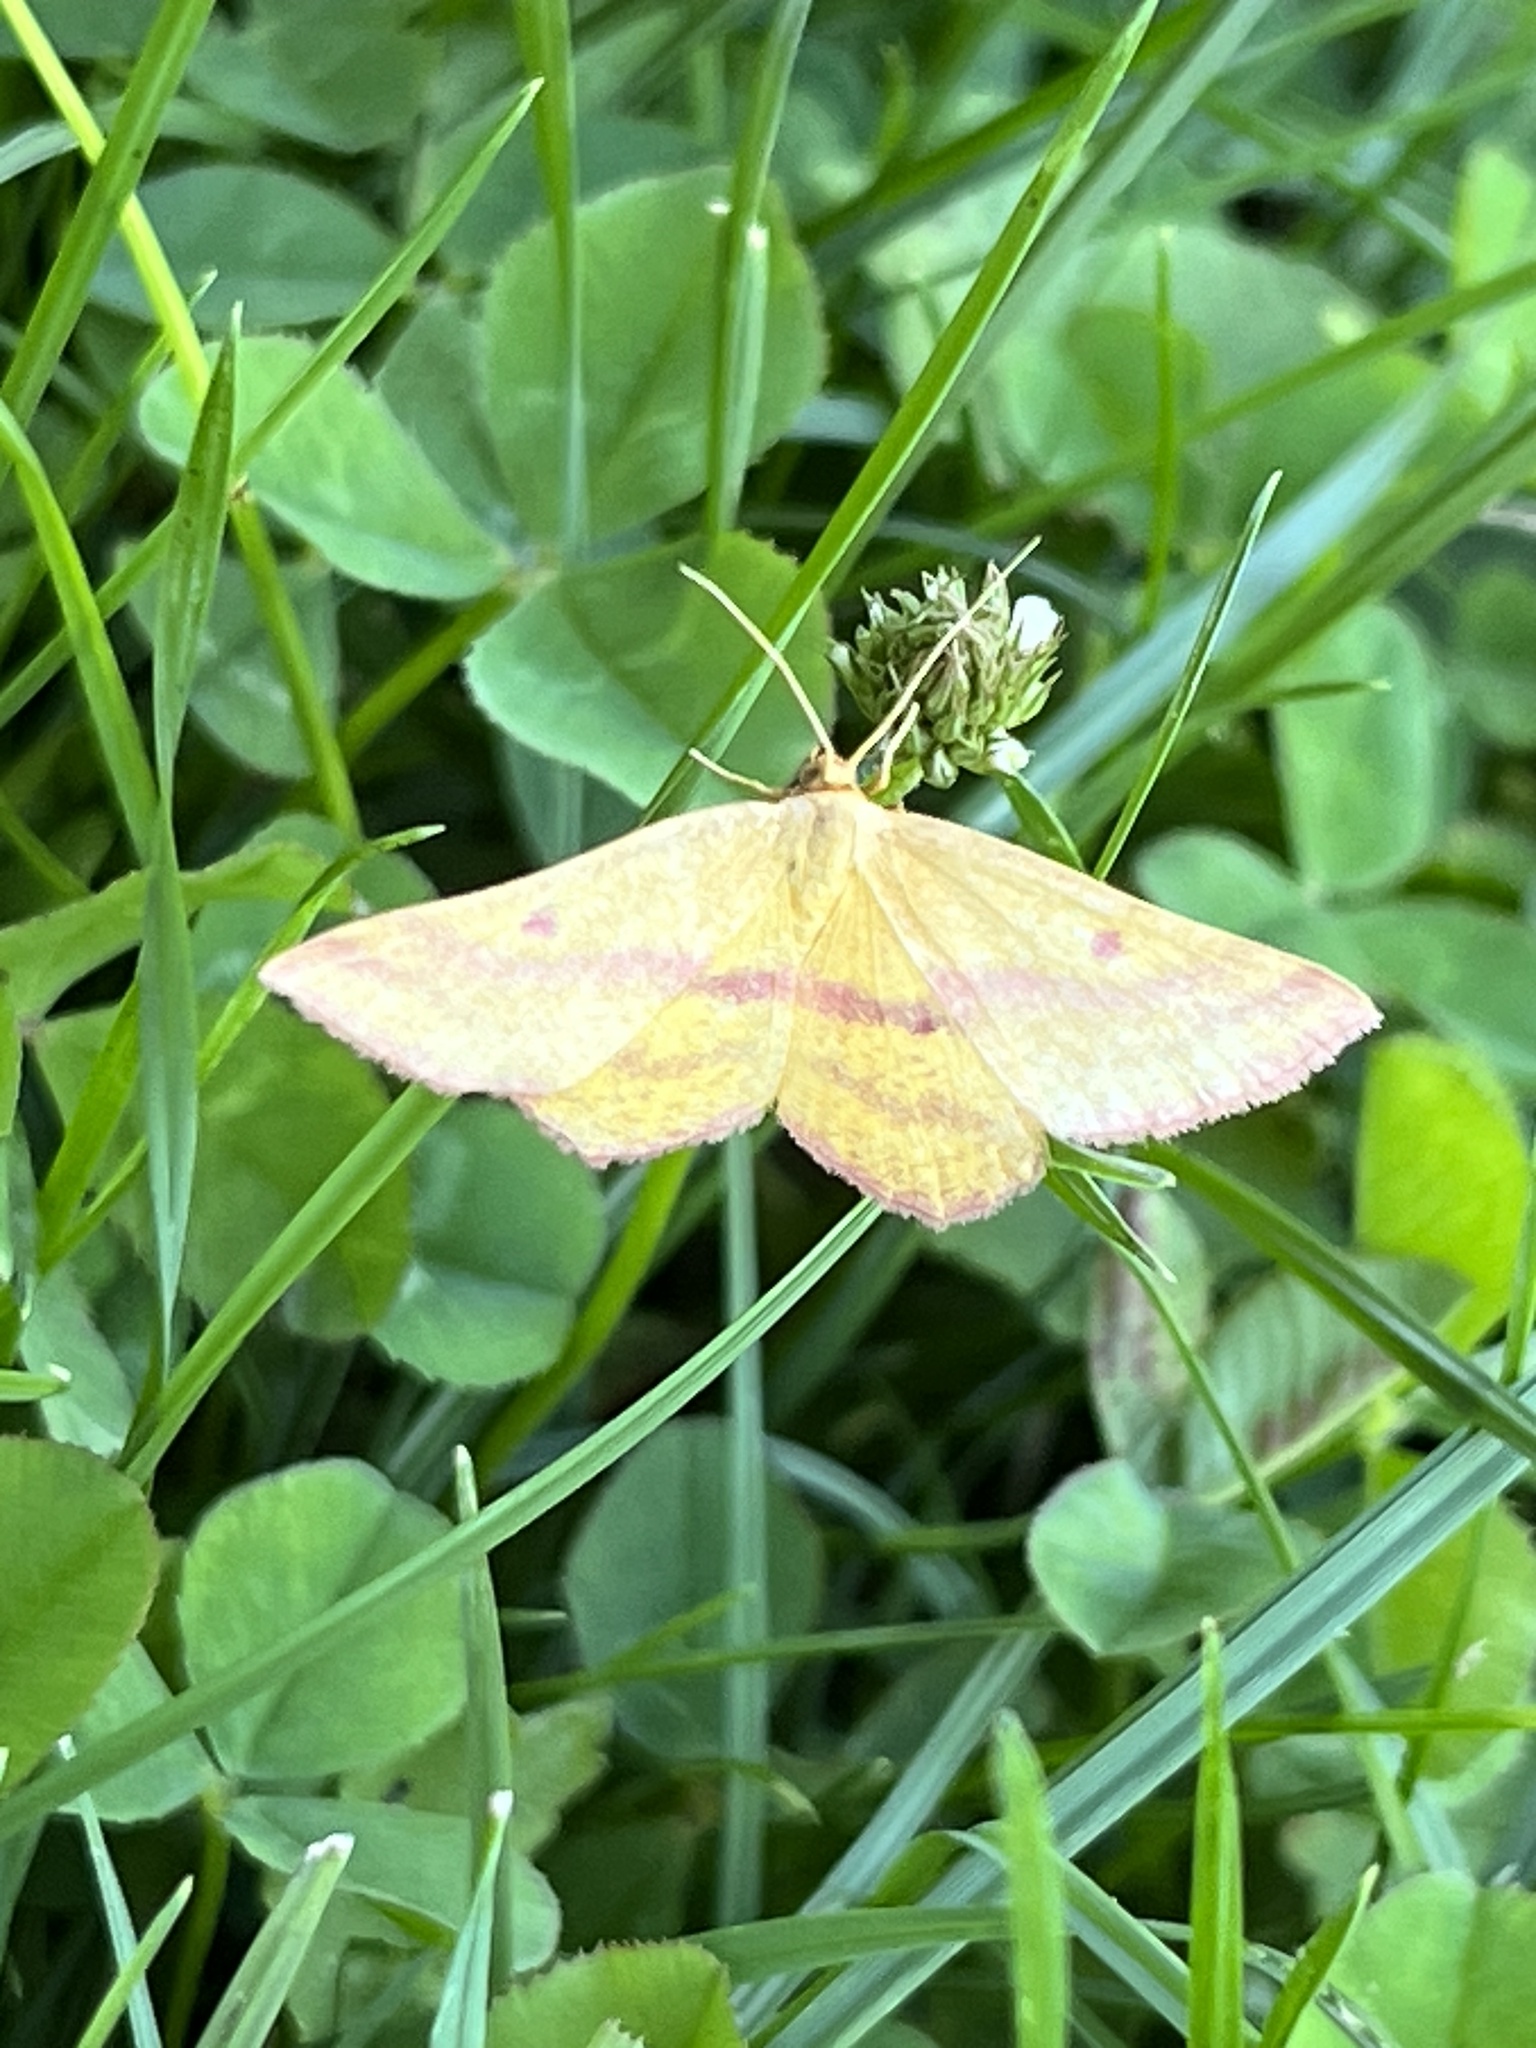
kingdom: Animalia
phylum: Arthropoda
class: Insecta
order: Lepidoptera
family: Geometridae
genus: Haematopis
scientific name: Haematopis grataria
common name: Chickweed geometer
